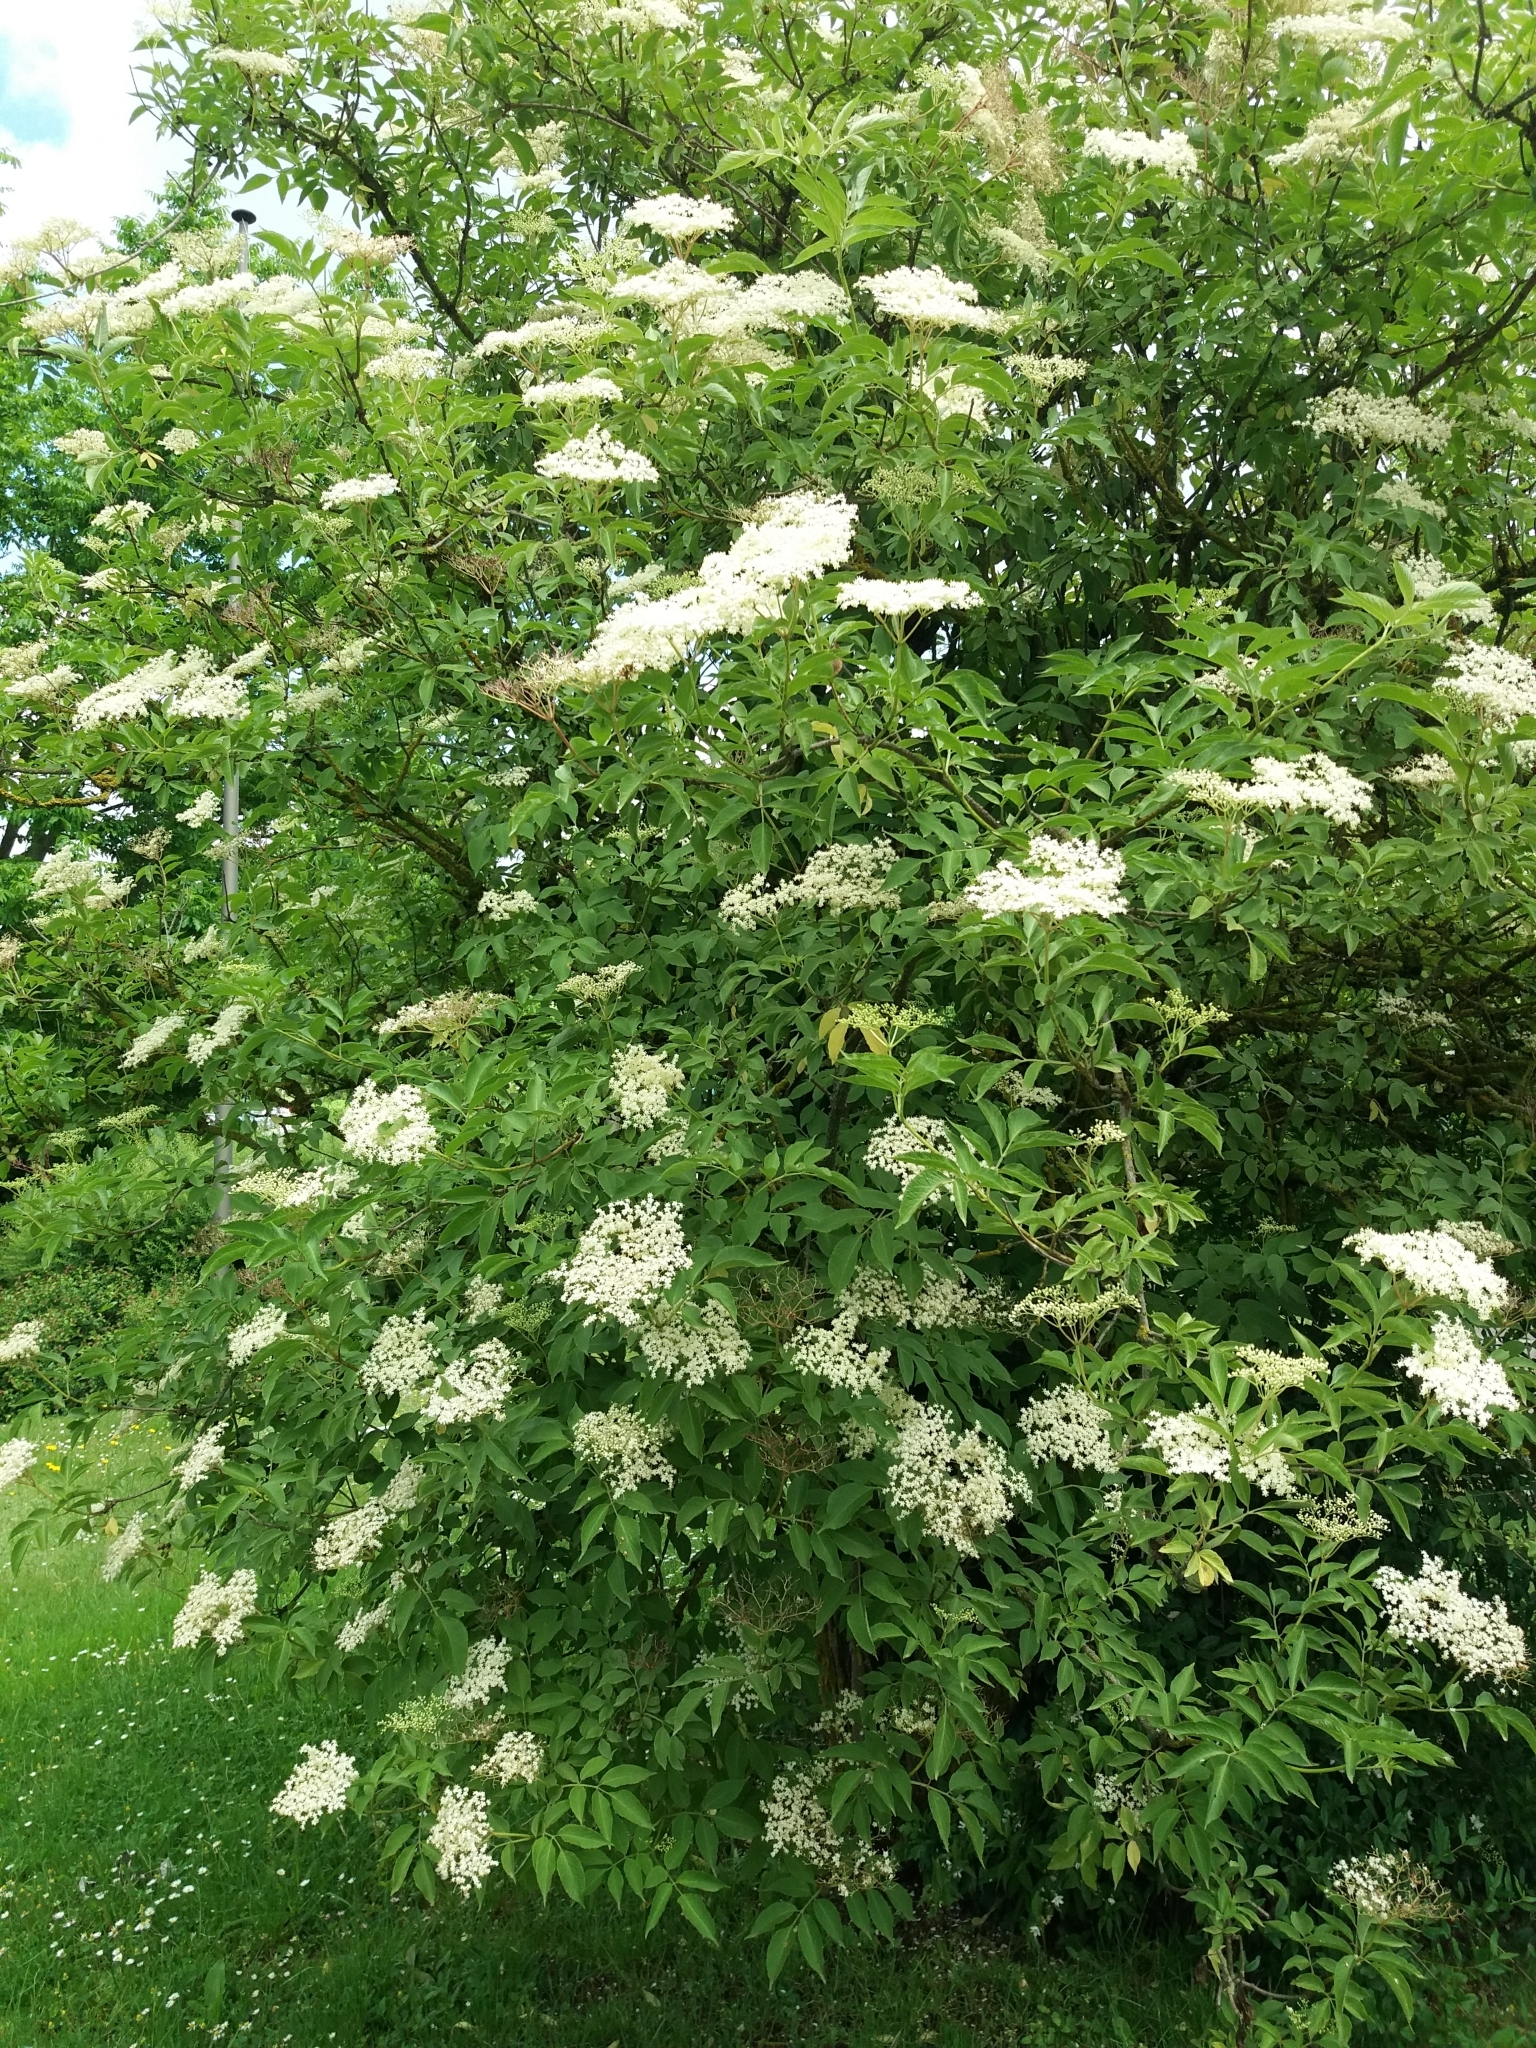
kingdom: Plantae
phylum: Tracheophyta
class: Magnoliopsida
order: Dipsacales
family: Viburnaceae
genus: Sambucus
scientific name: Sambucus nigra
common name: Elder
